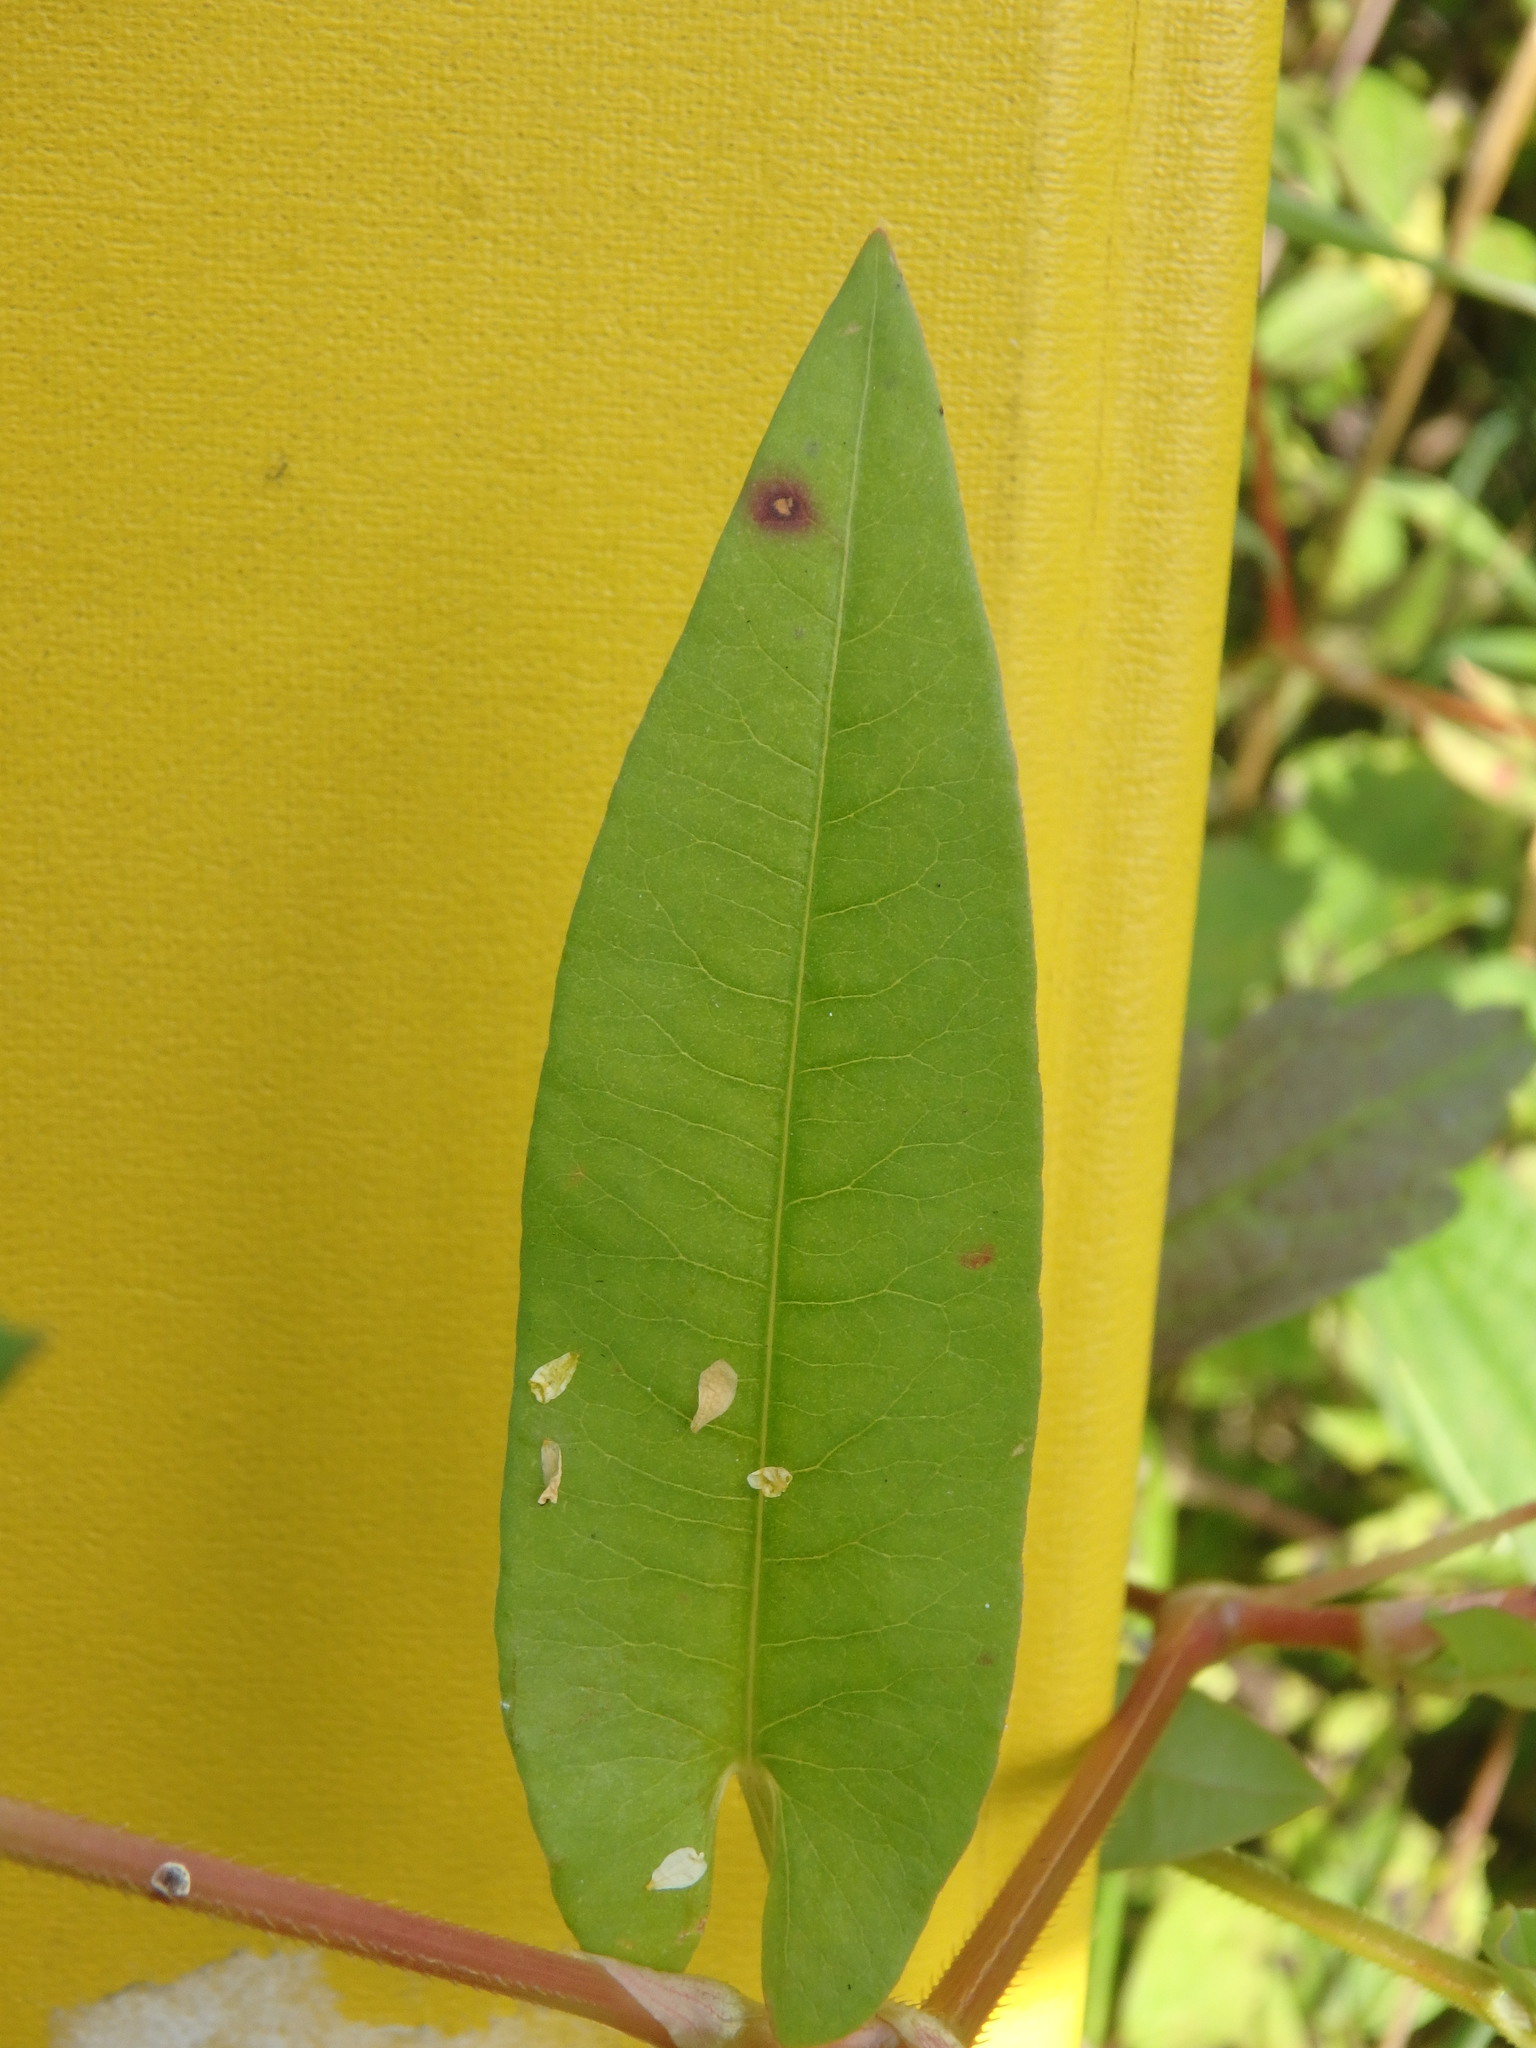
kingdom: Plantae
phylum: Tracheophyta
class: Magnoliopsida
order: Caryophyllales
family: Polygonaceae
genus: Persicaria
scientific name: Persicaria sagittata
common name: American tearthumb
